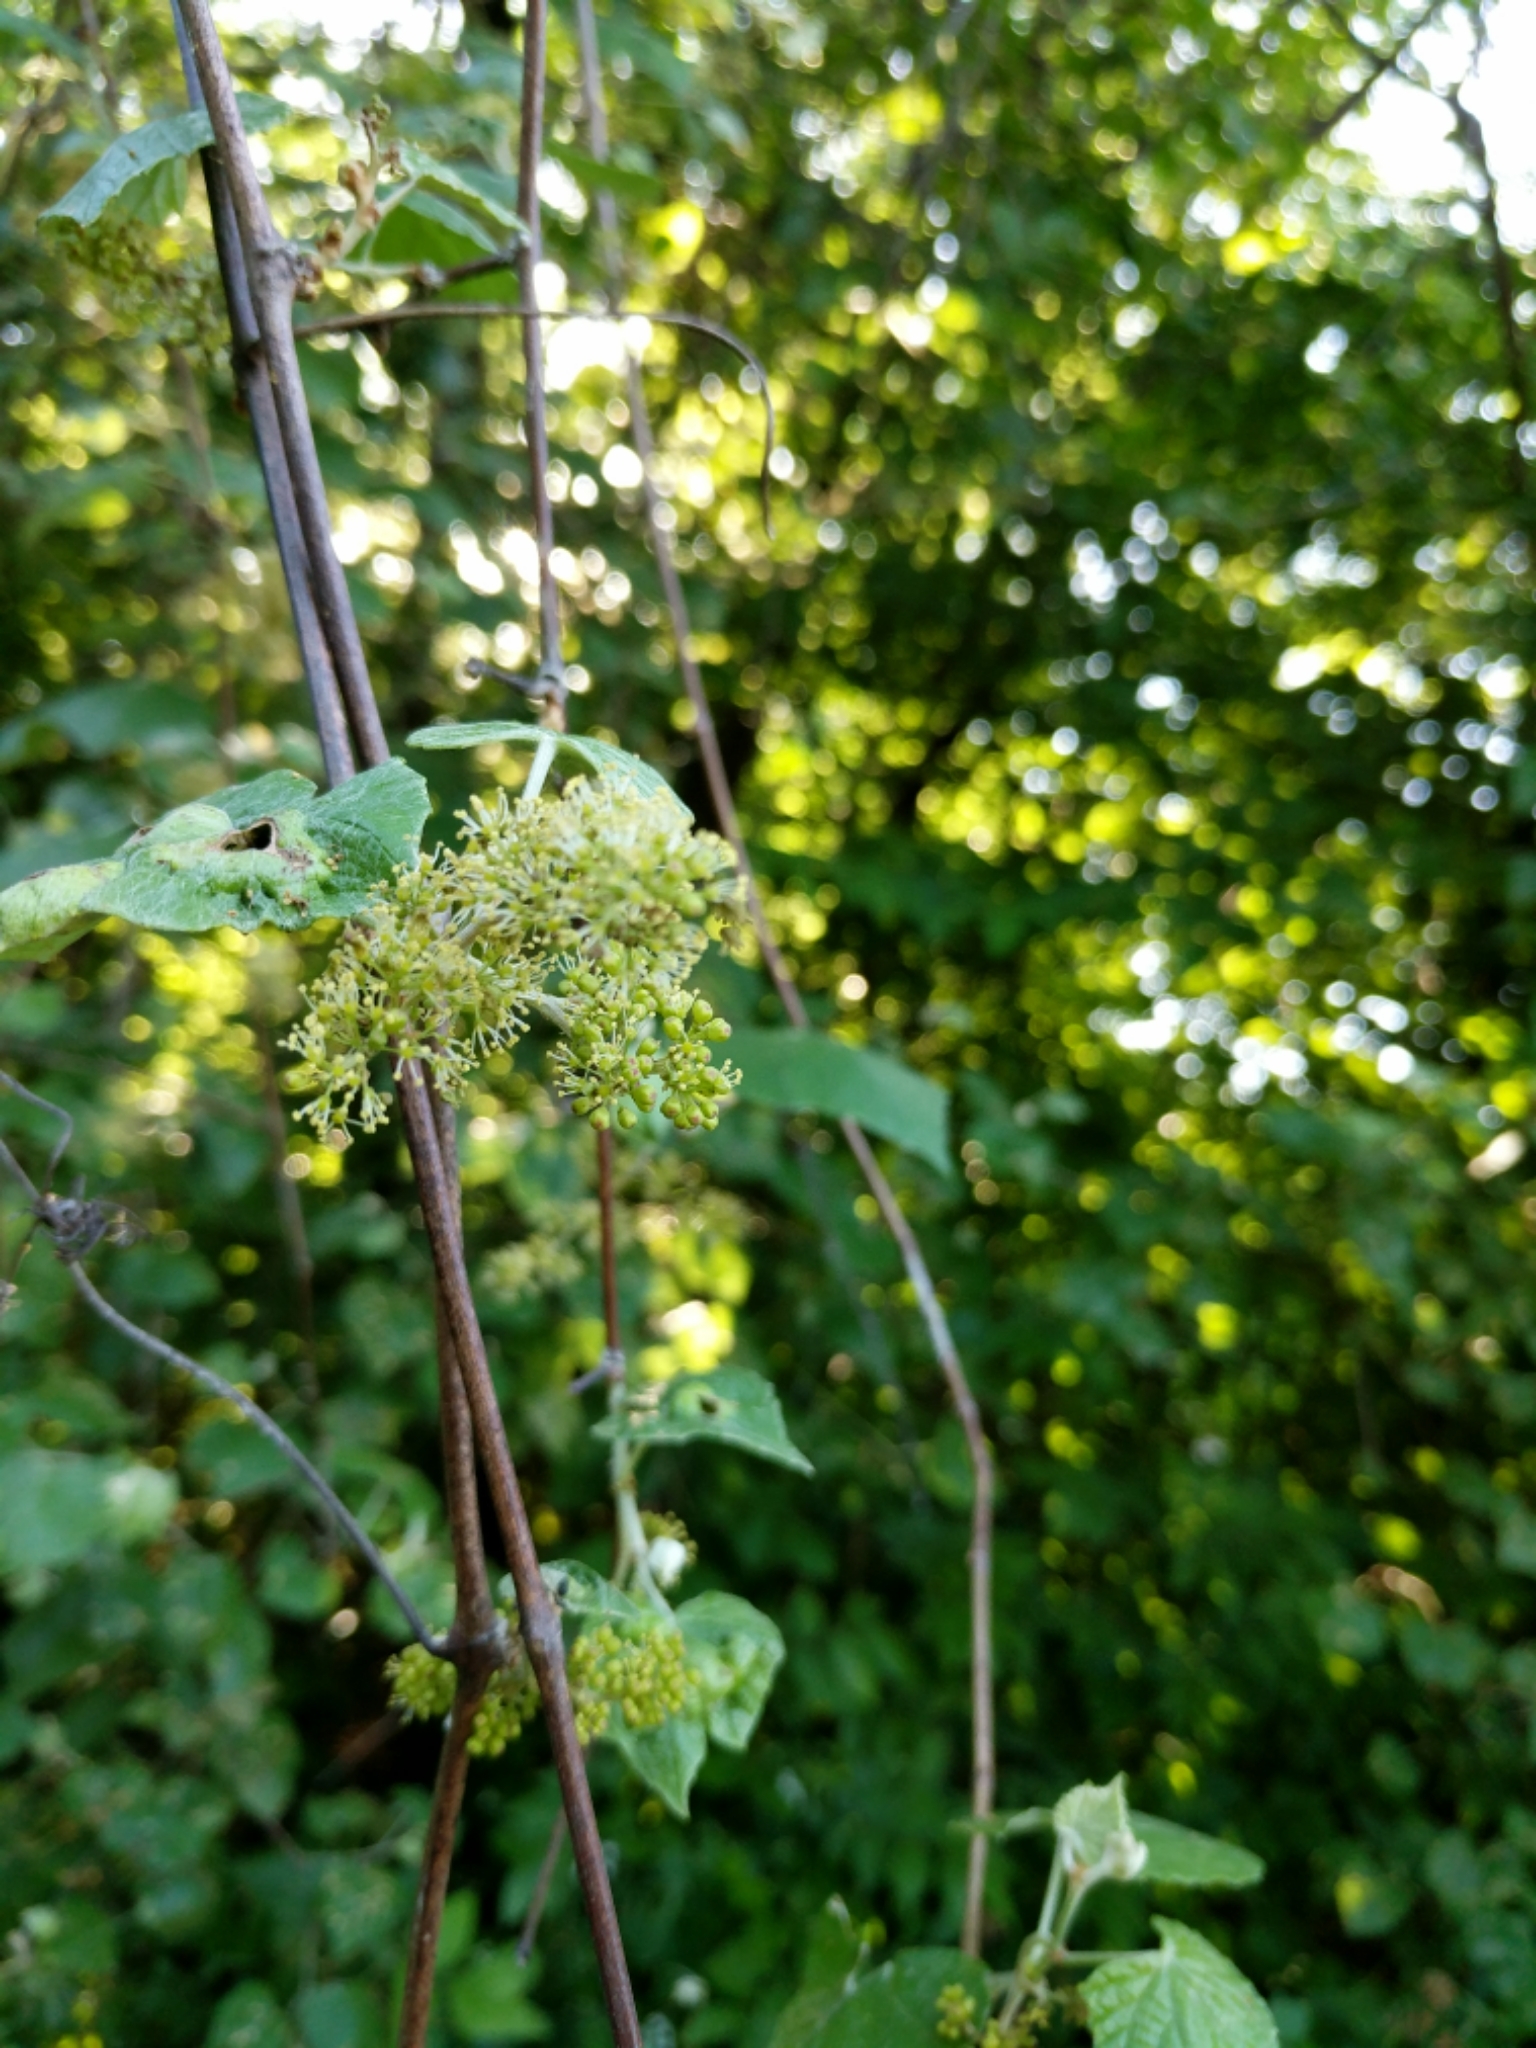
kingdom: Plantae
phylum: Tracheophyta
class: Magnoliopsida
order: Vitales
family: Vitaceae
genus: Vitis
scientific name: Vitis mustangensis
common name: Mustang grape
